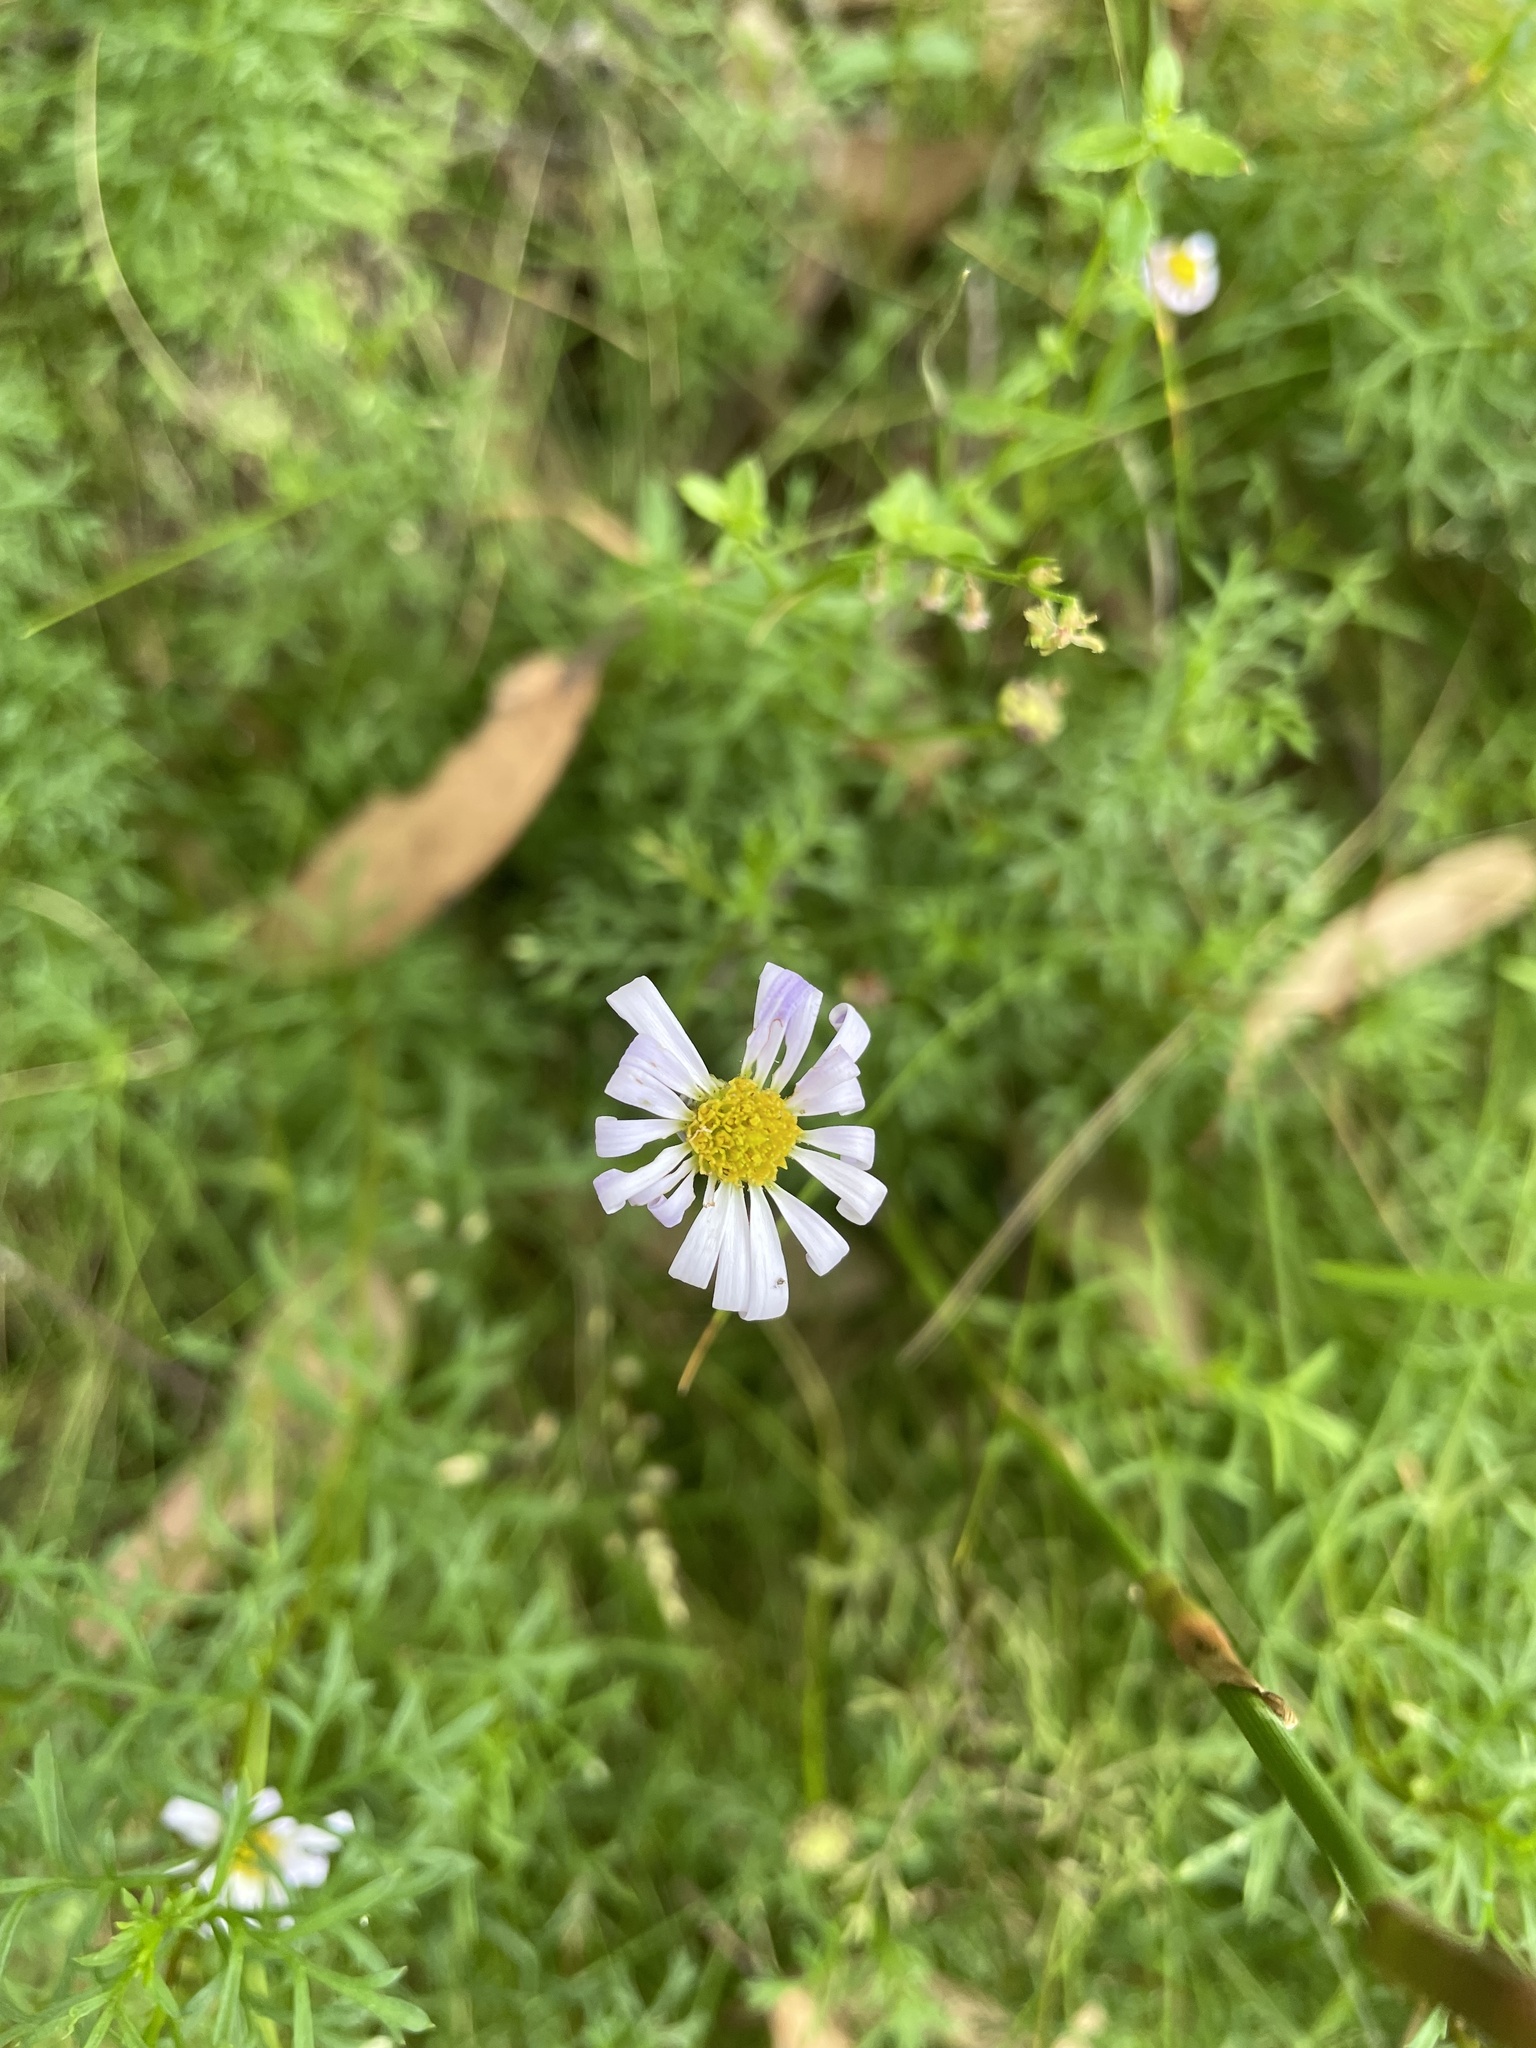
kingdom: Plantae
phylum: Tracheophyta
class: Magnoliopsida
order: Asterales
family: Asteraceae
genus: Brachyscome
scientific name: Brachyscome multifida
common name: Cut-leaf daisy
